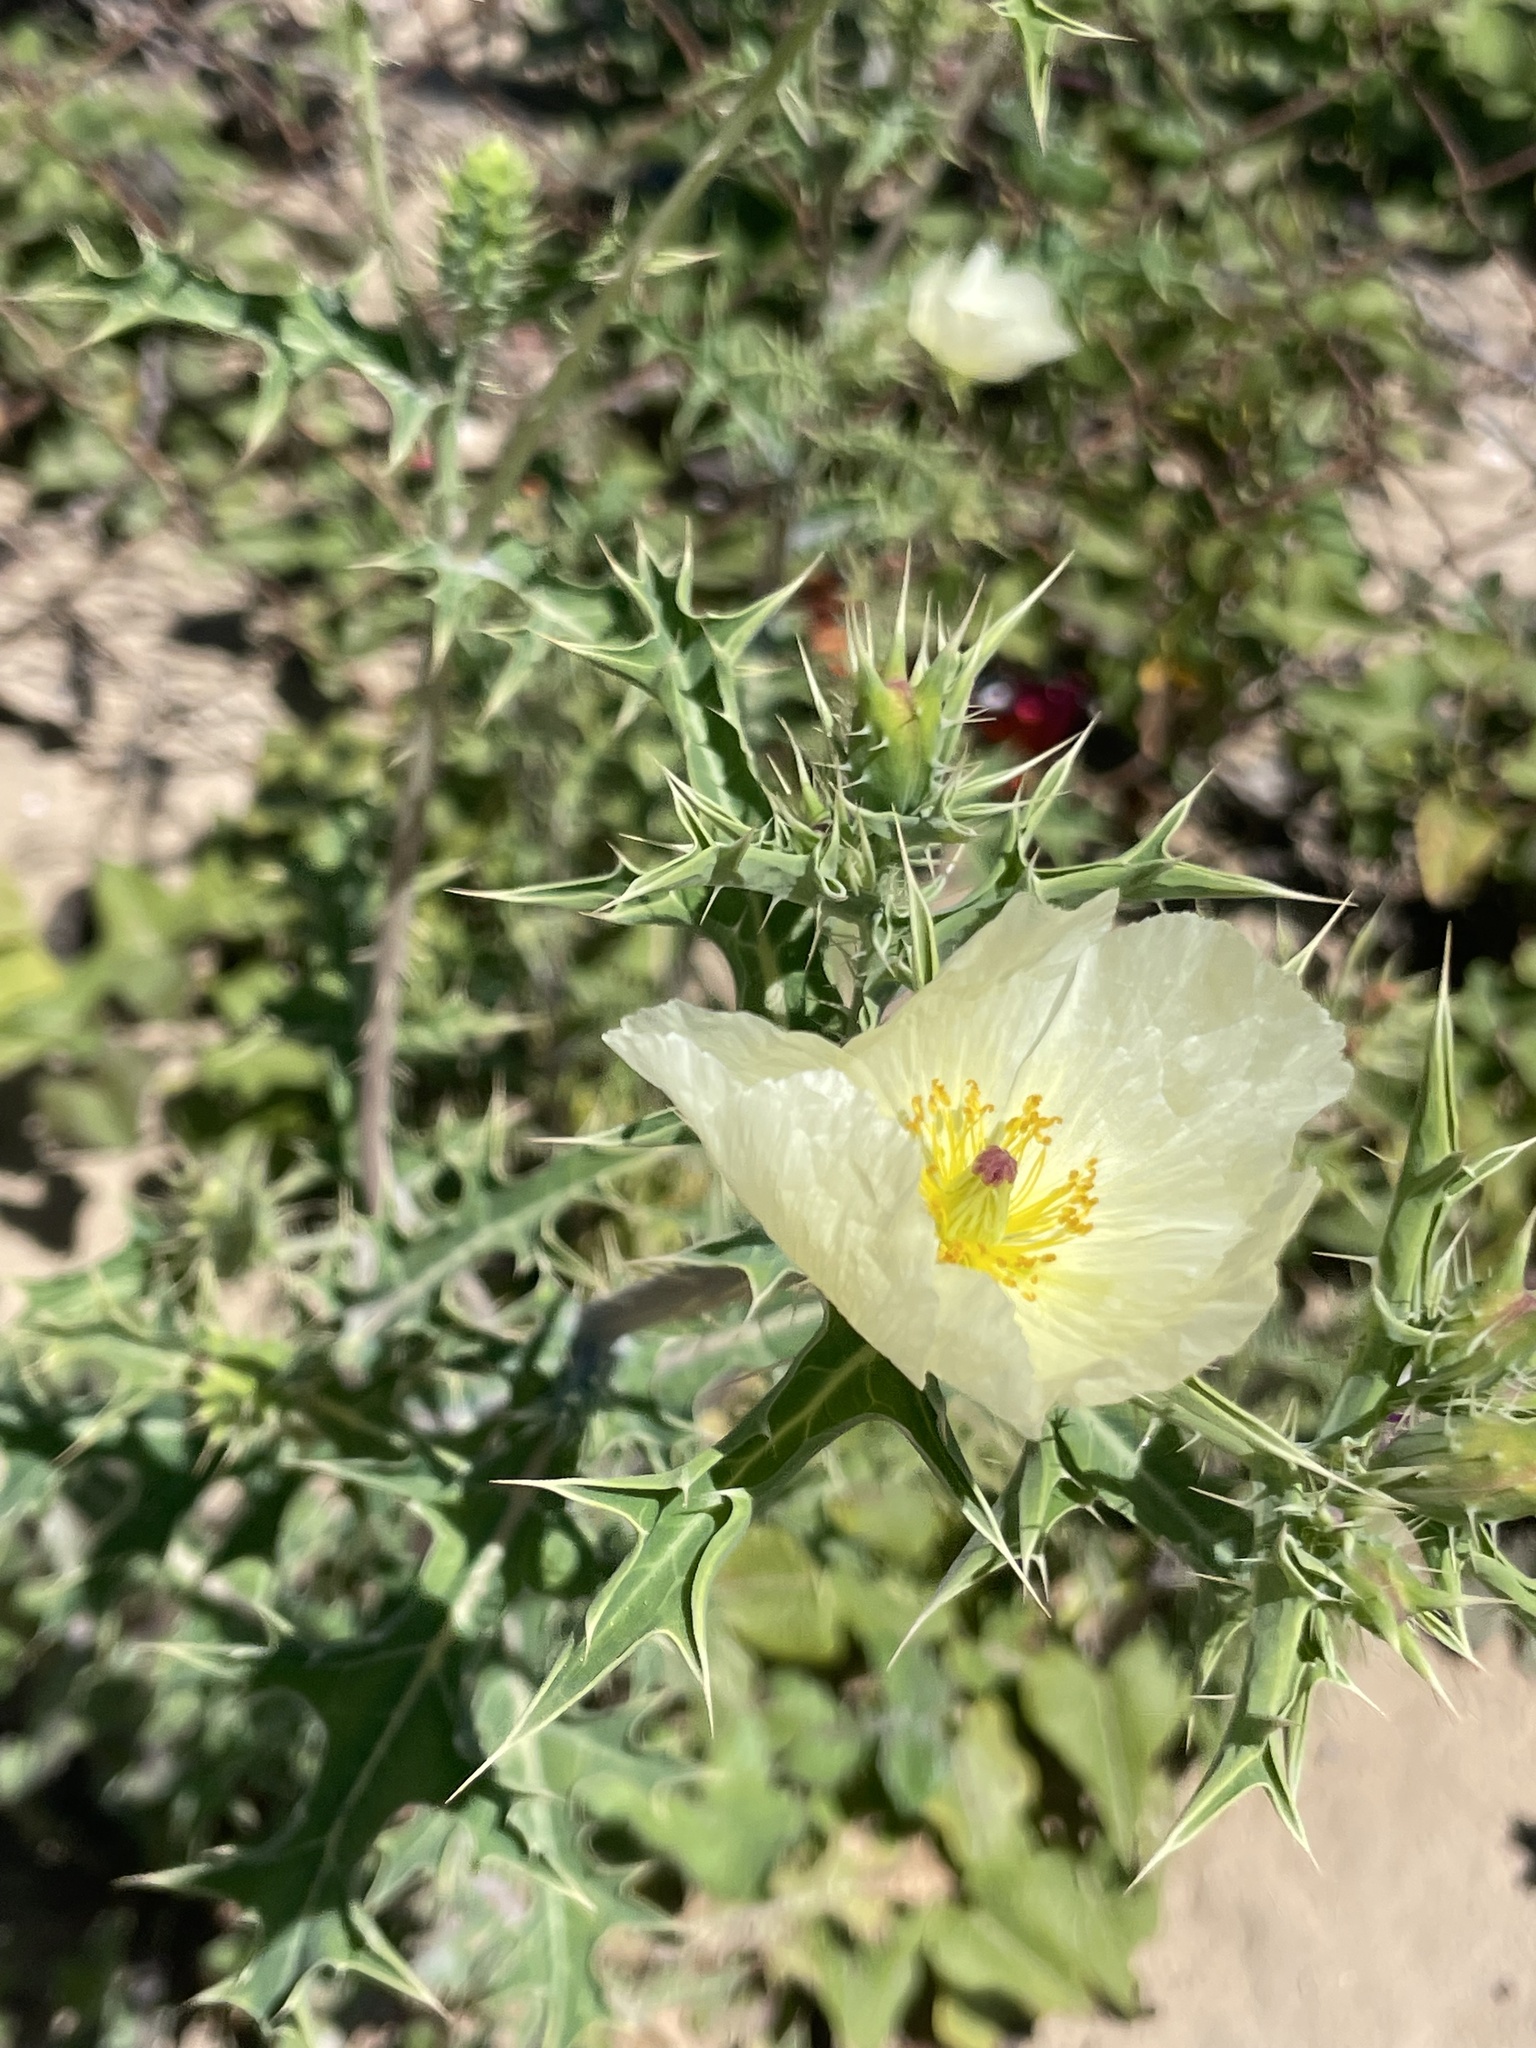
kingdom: Plantae
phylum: Tracheophyta
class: Magnoliopsida
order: Ranunculales
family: Papaveraceae
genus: Argemone
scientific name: Argemone ochroleuca
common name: White-flower mexican-poppy
